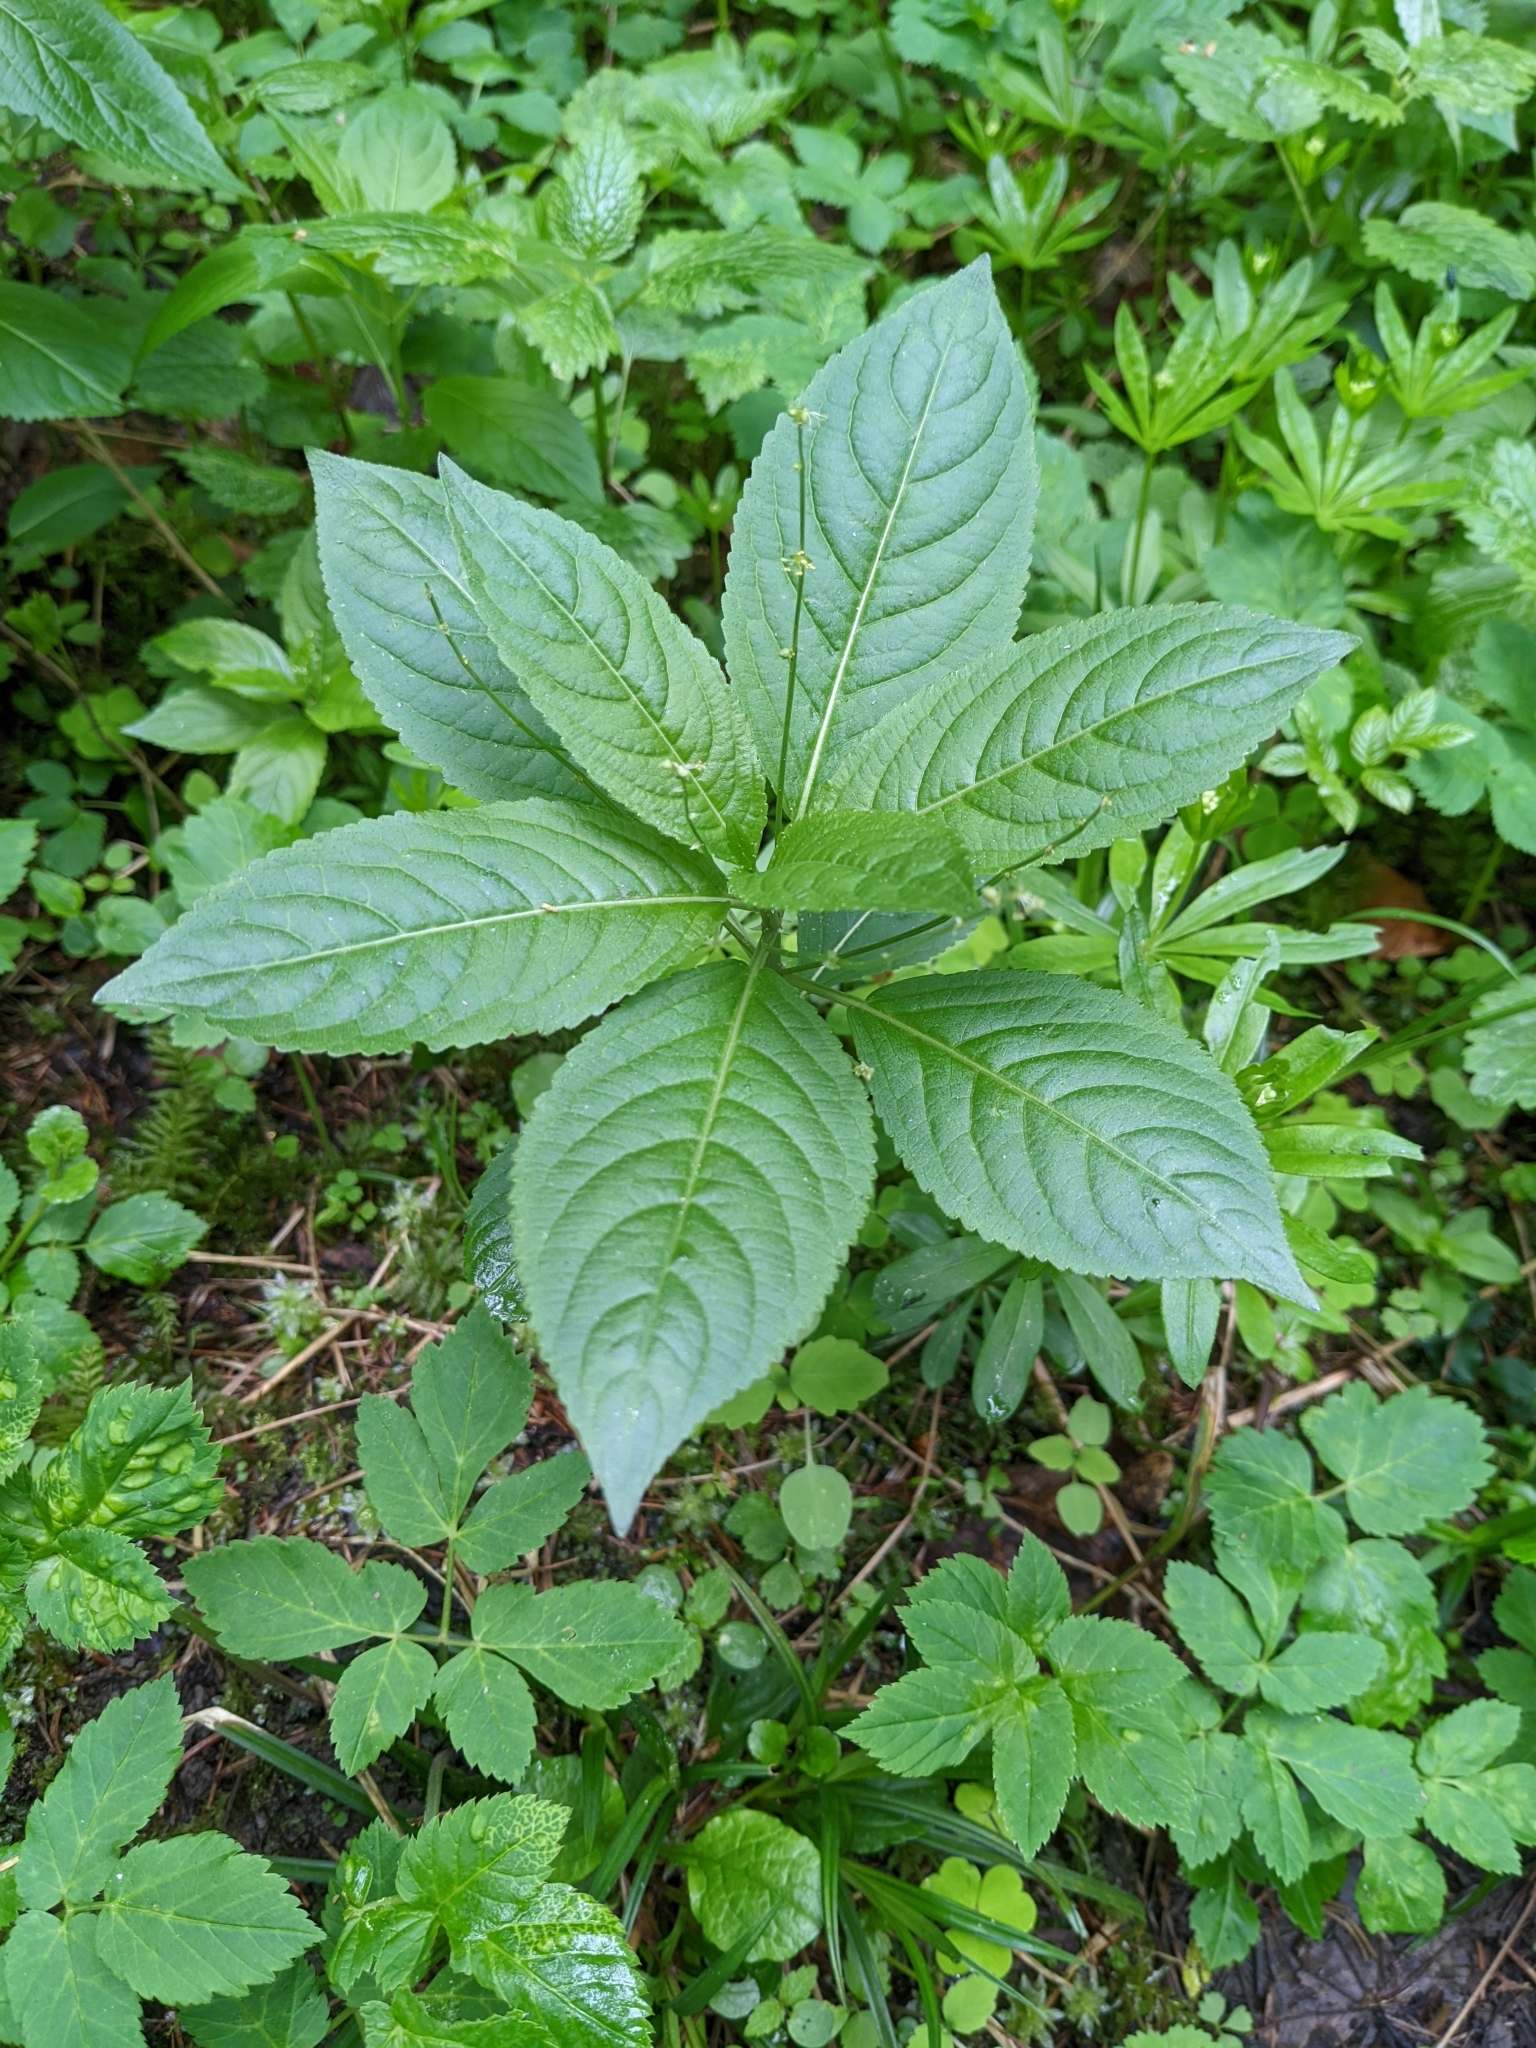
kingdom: Plantae
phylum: Tracheophyta
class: Magnoliopsida
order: Malpighiales
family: Euphorbiaceae
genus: Mercurialis
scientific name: Mercurialis perennis
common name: Dog mercury
